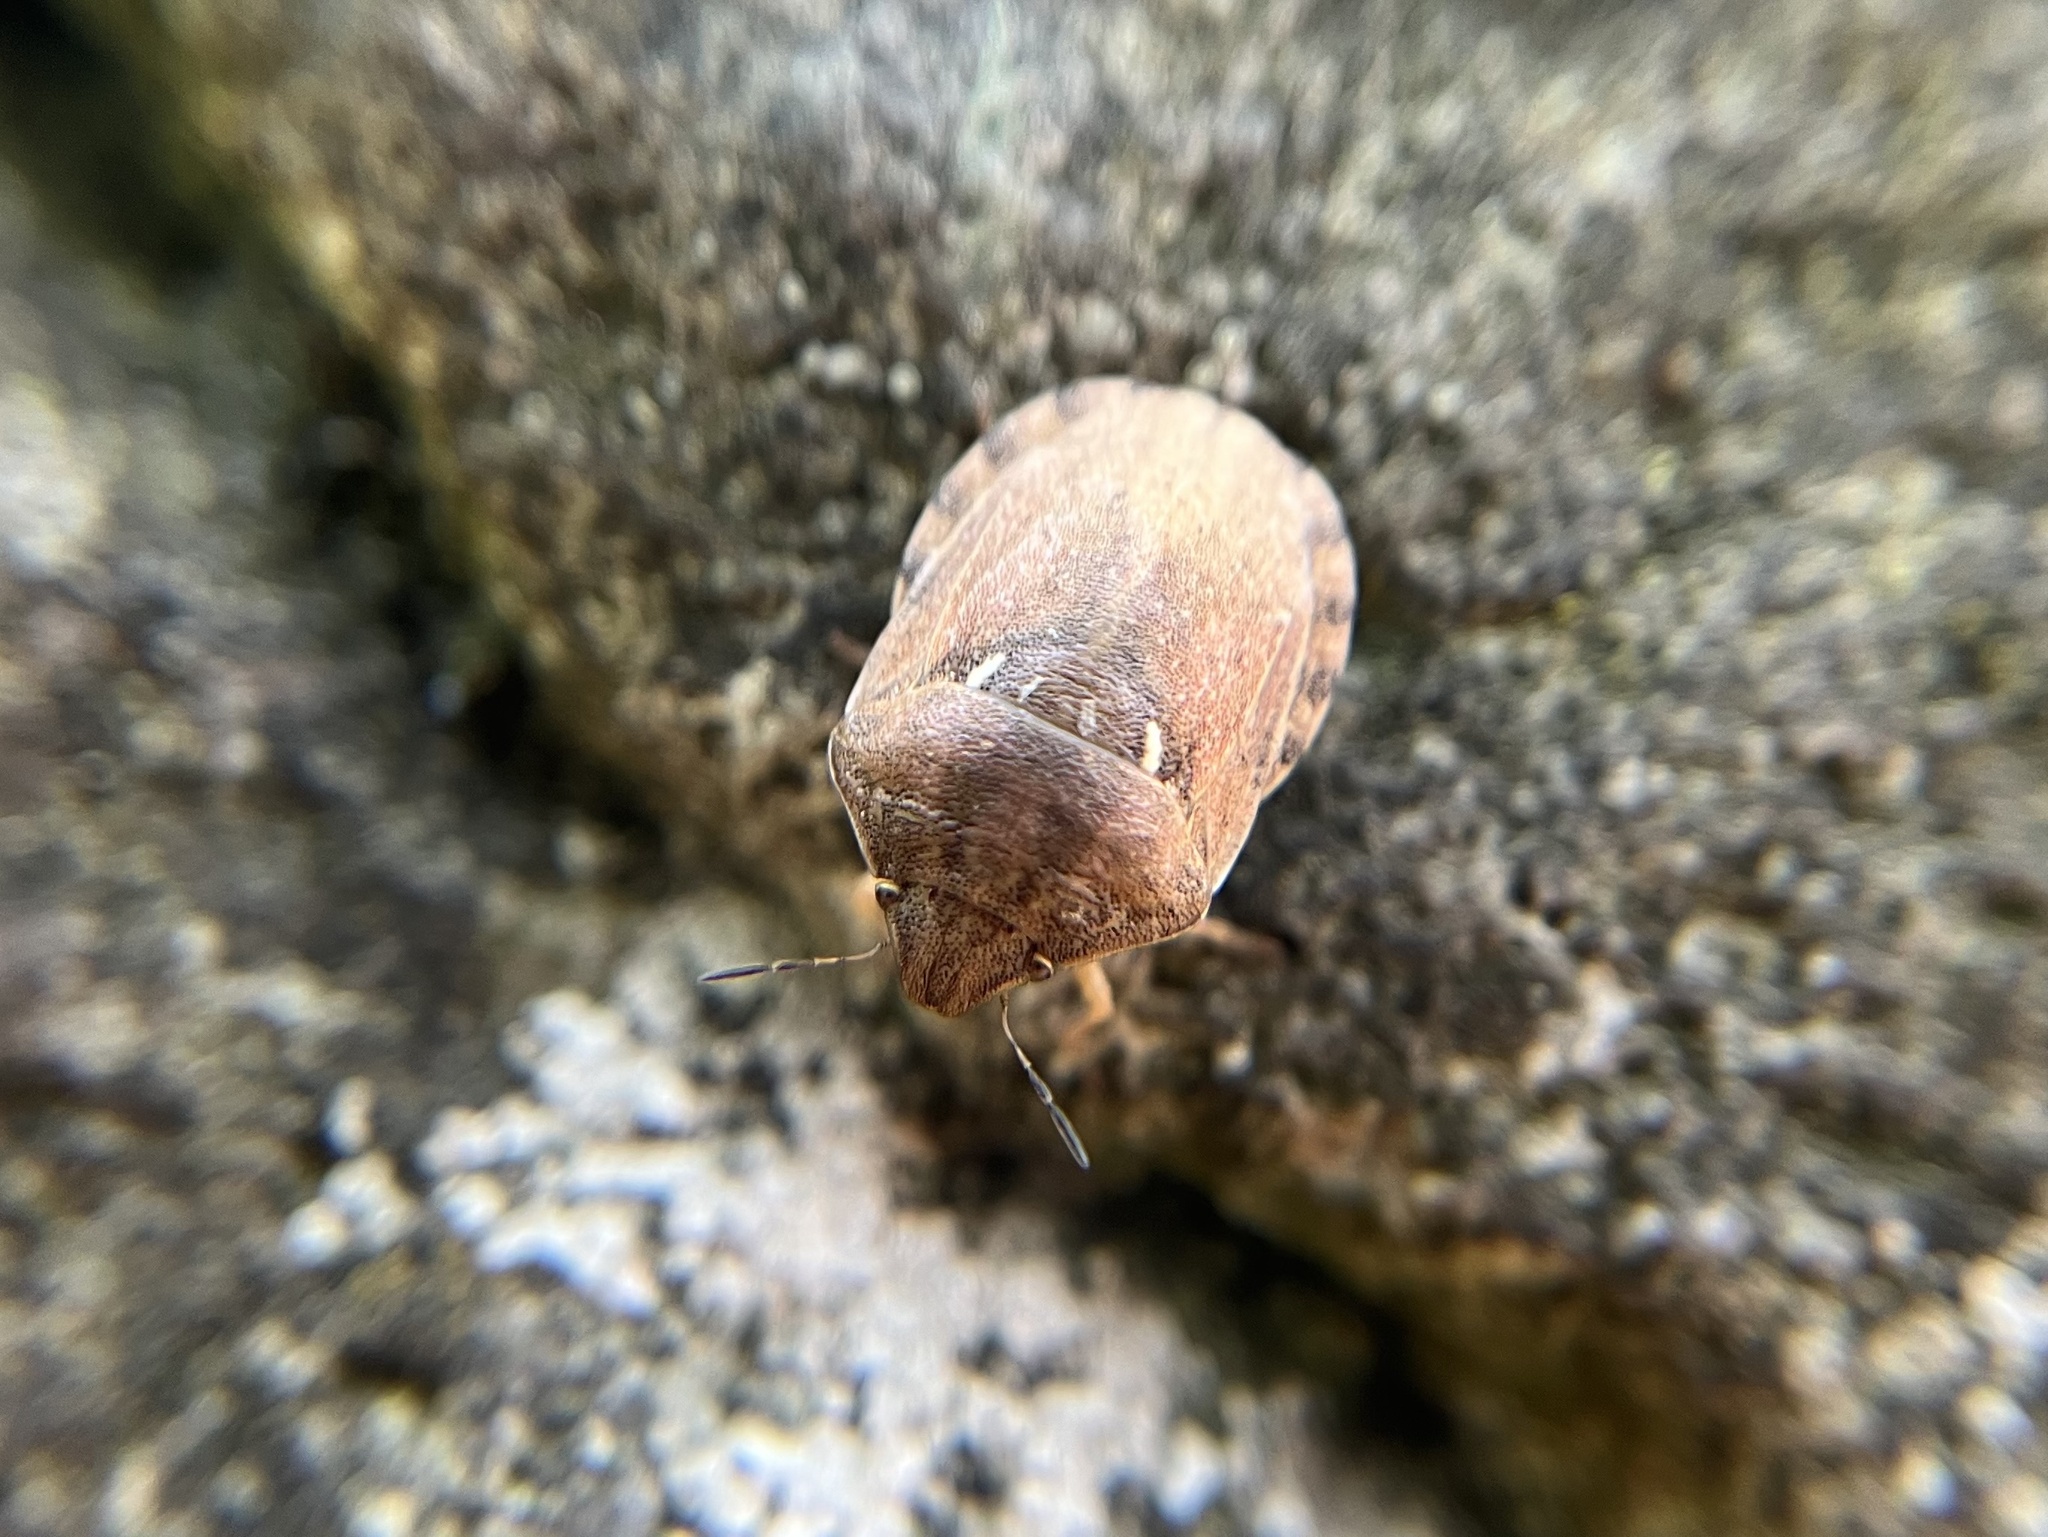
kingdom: Animalia
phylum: Arthropoda
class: Insecta
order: Hemiptera
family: Scutelleridae
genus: Eurygaster
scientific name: Eurygaster maura
